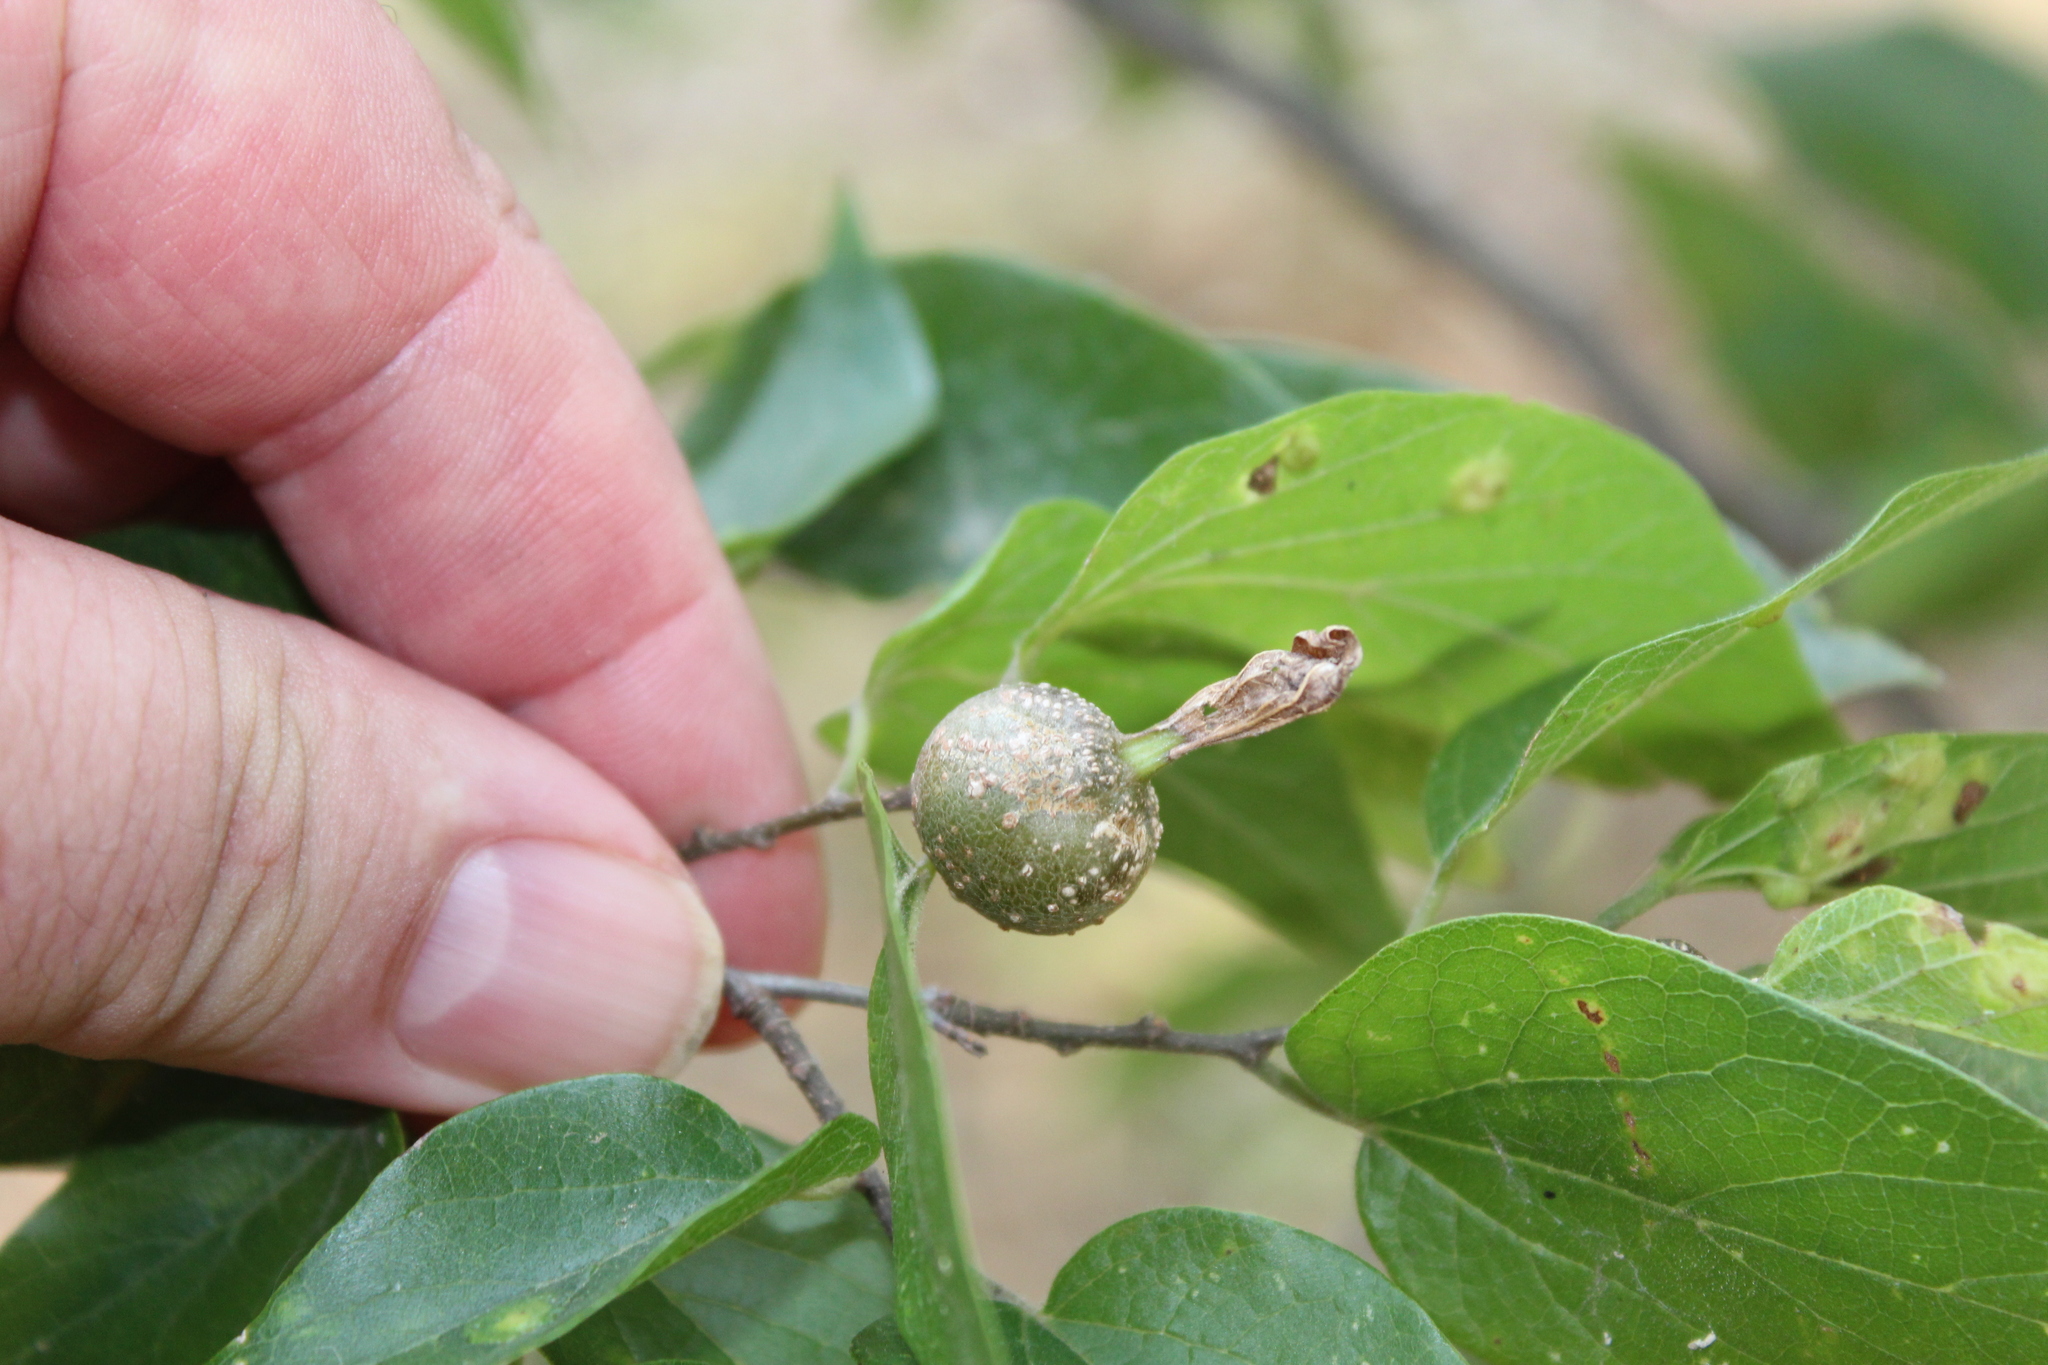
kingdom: Animalia
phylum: Arthropoda
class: Insecta
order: Hemiptera
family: Aphalaridae
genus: Pachypsylla
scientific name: Pachypsylla venusta
